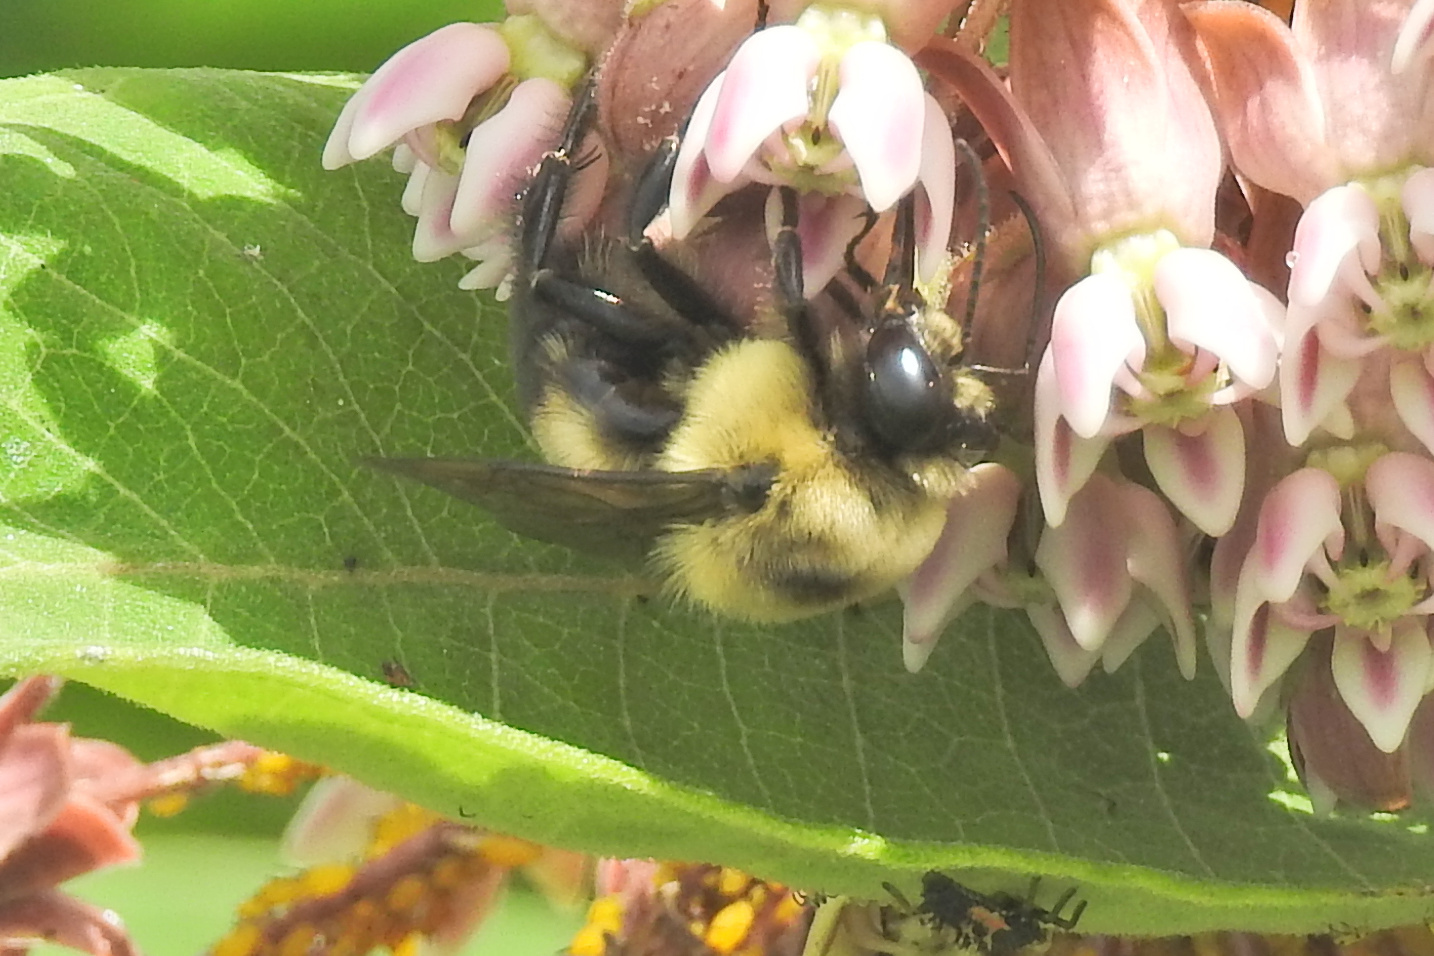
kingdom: Animalia
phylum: Arthropoda
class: Insecta
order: Hymenoptera
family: Apidae
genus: Bombus
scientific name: Bombus griseocollis
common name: Brown-belted bumble bee
